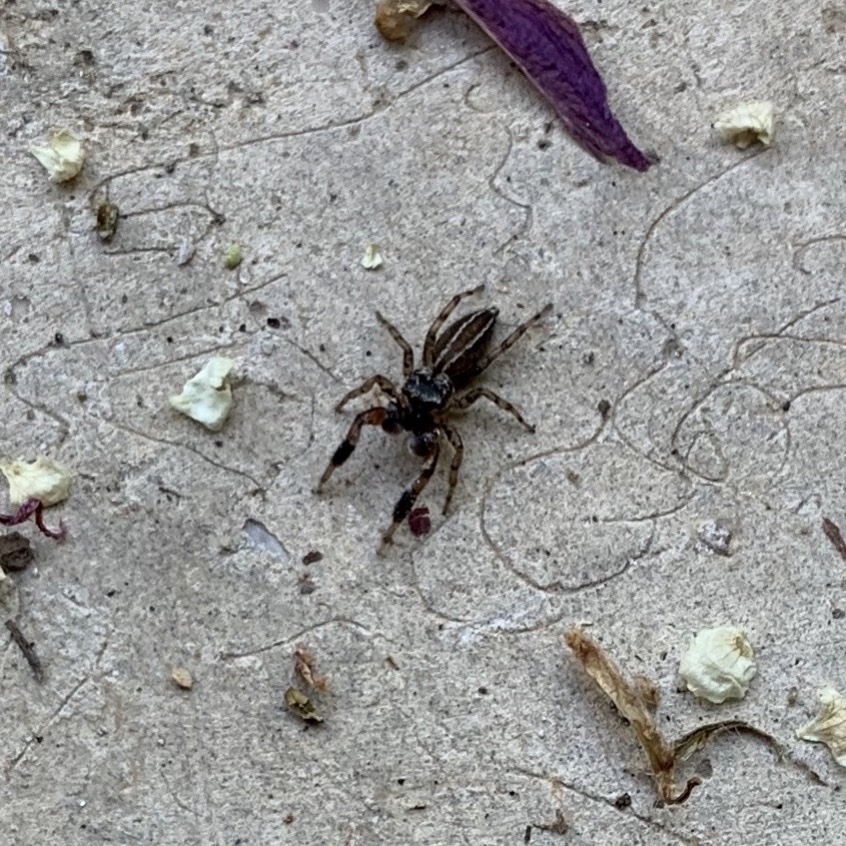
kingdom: Animalia
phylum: Arthropoda
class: Arachnida
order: Araneae
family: Salticidae
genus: Marpissa
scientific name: Marpissa lineata
